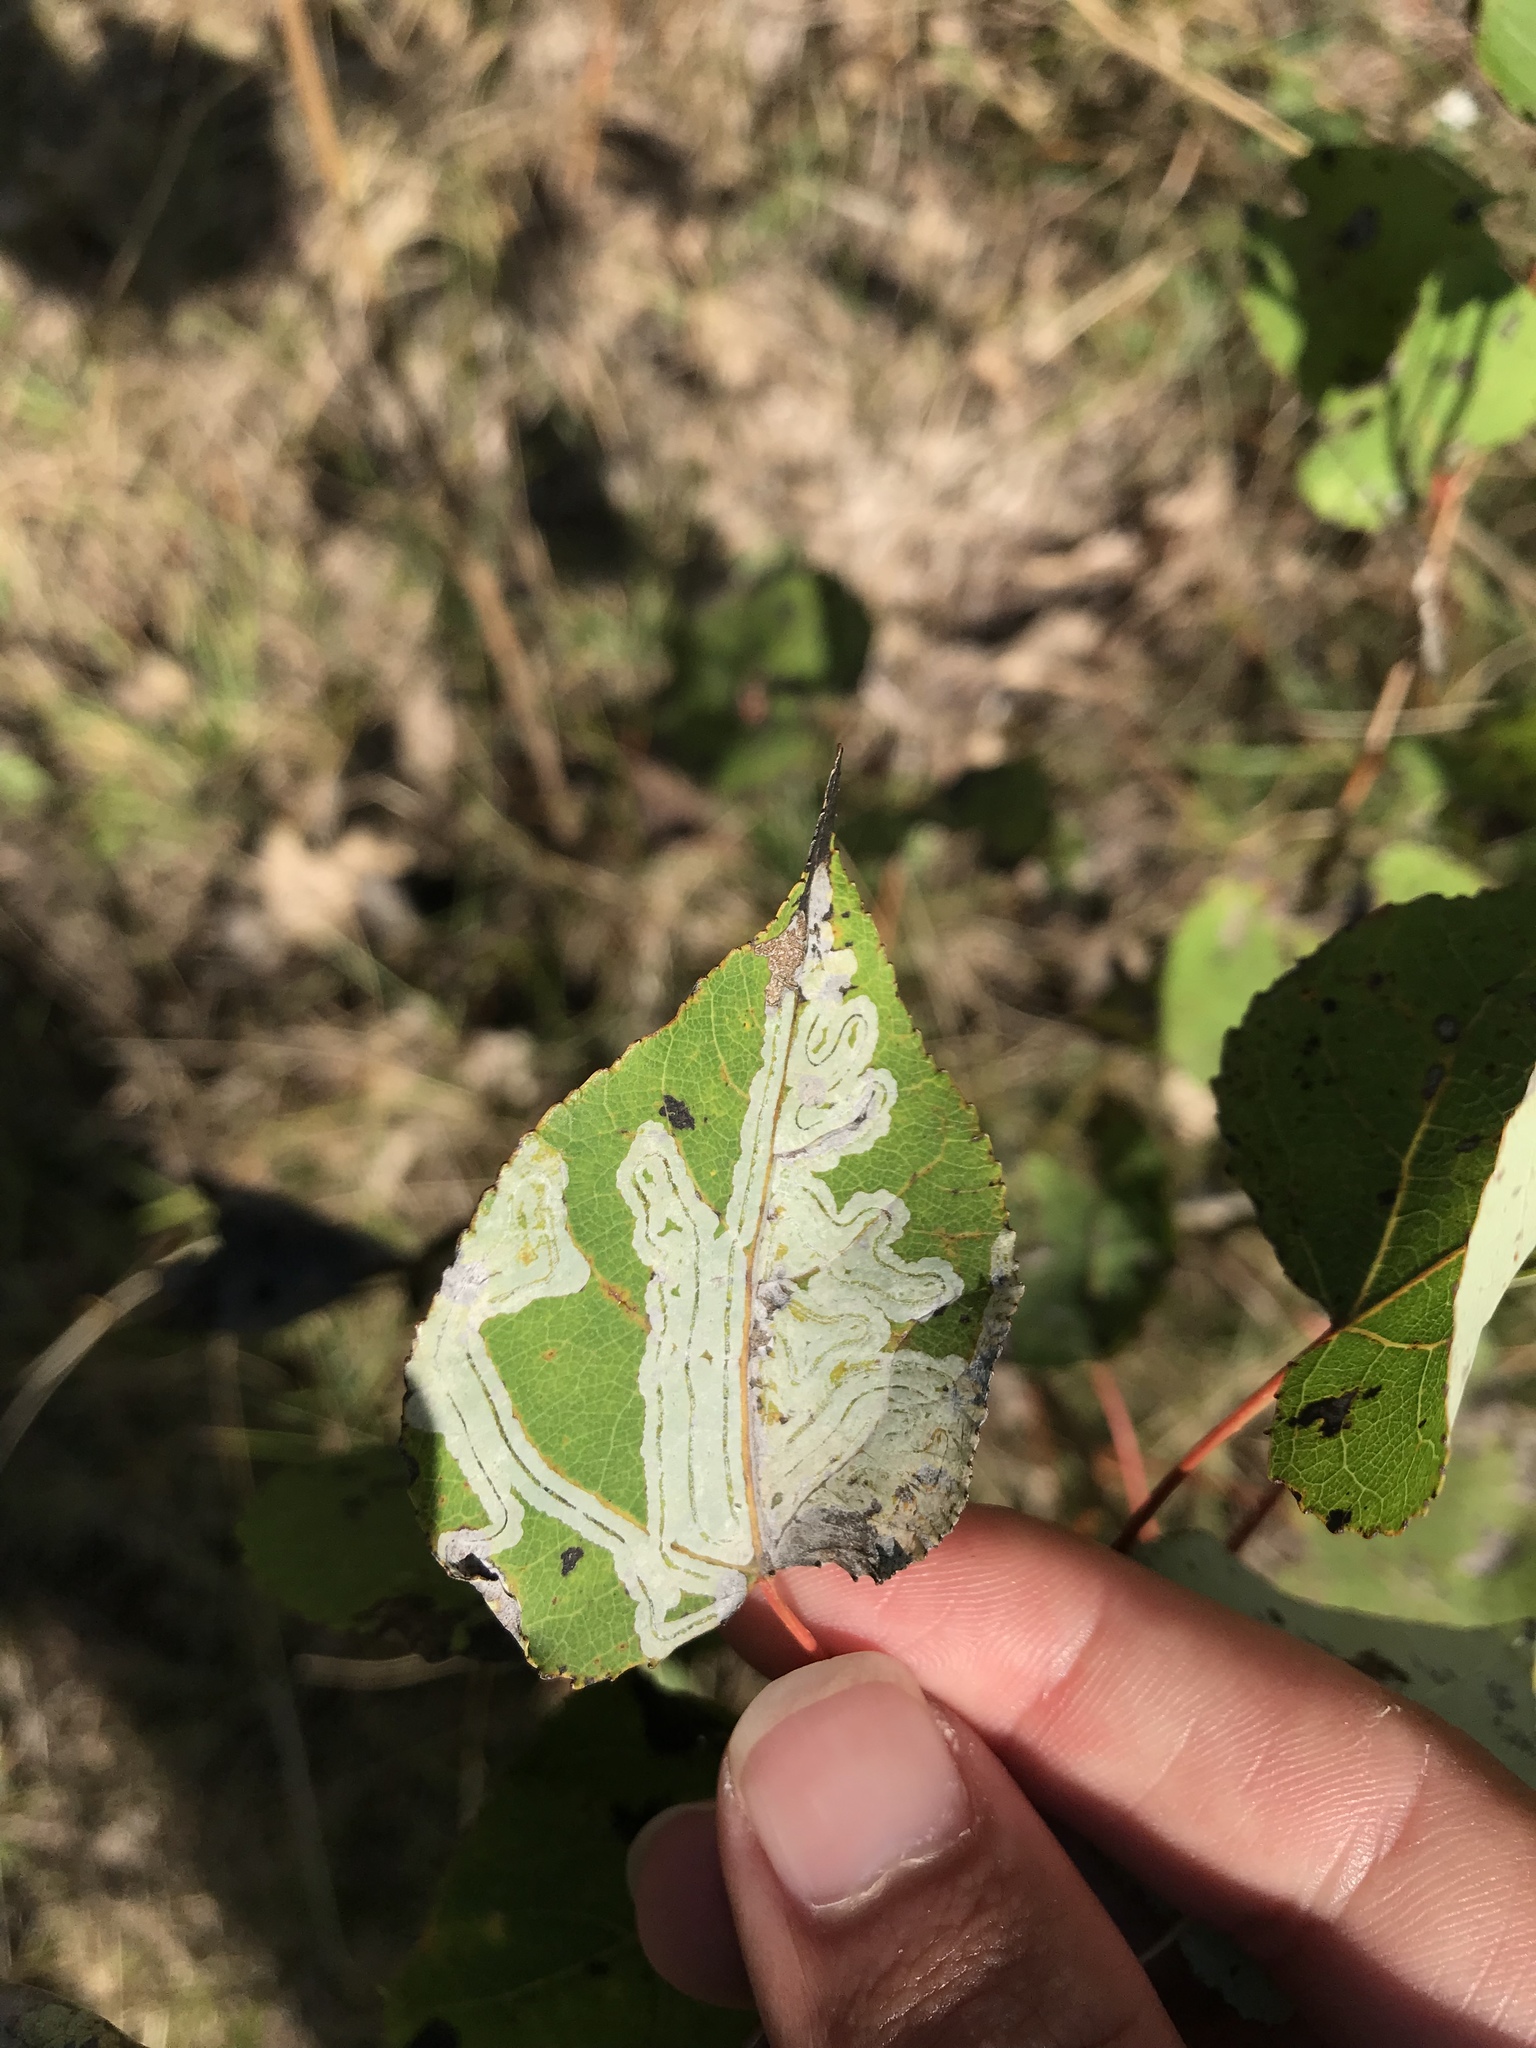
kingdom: Animalia
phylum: Arthropoda
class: Insecta
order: Lepidoptera
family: Gracillariidae
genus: Phyllocnistis
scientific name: Phyllocnistis populiella
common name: Aspen serpentine leafminer moth
